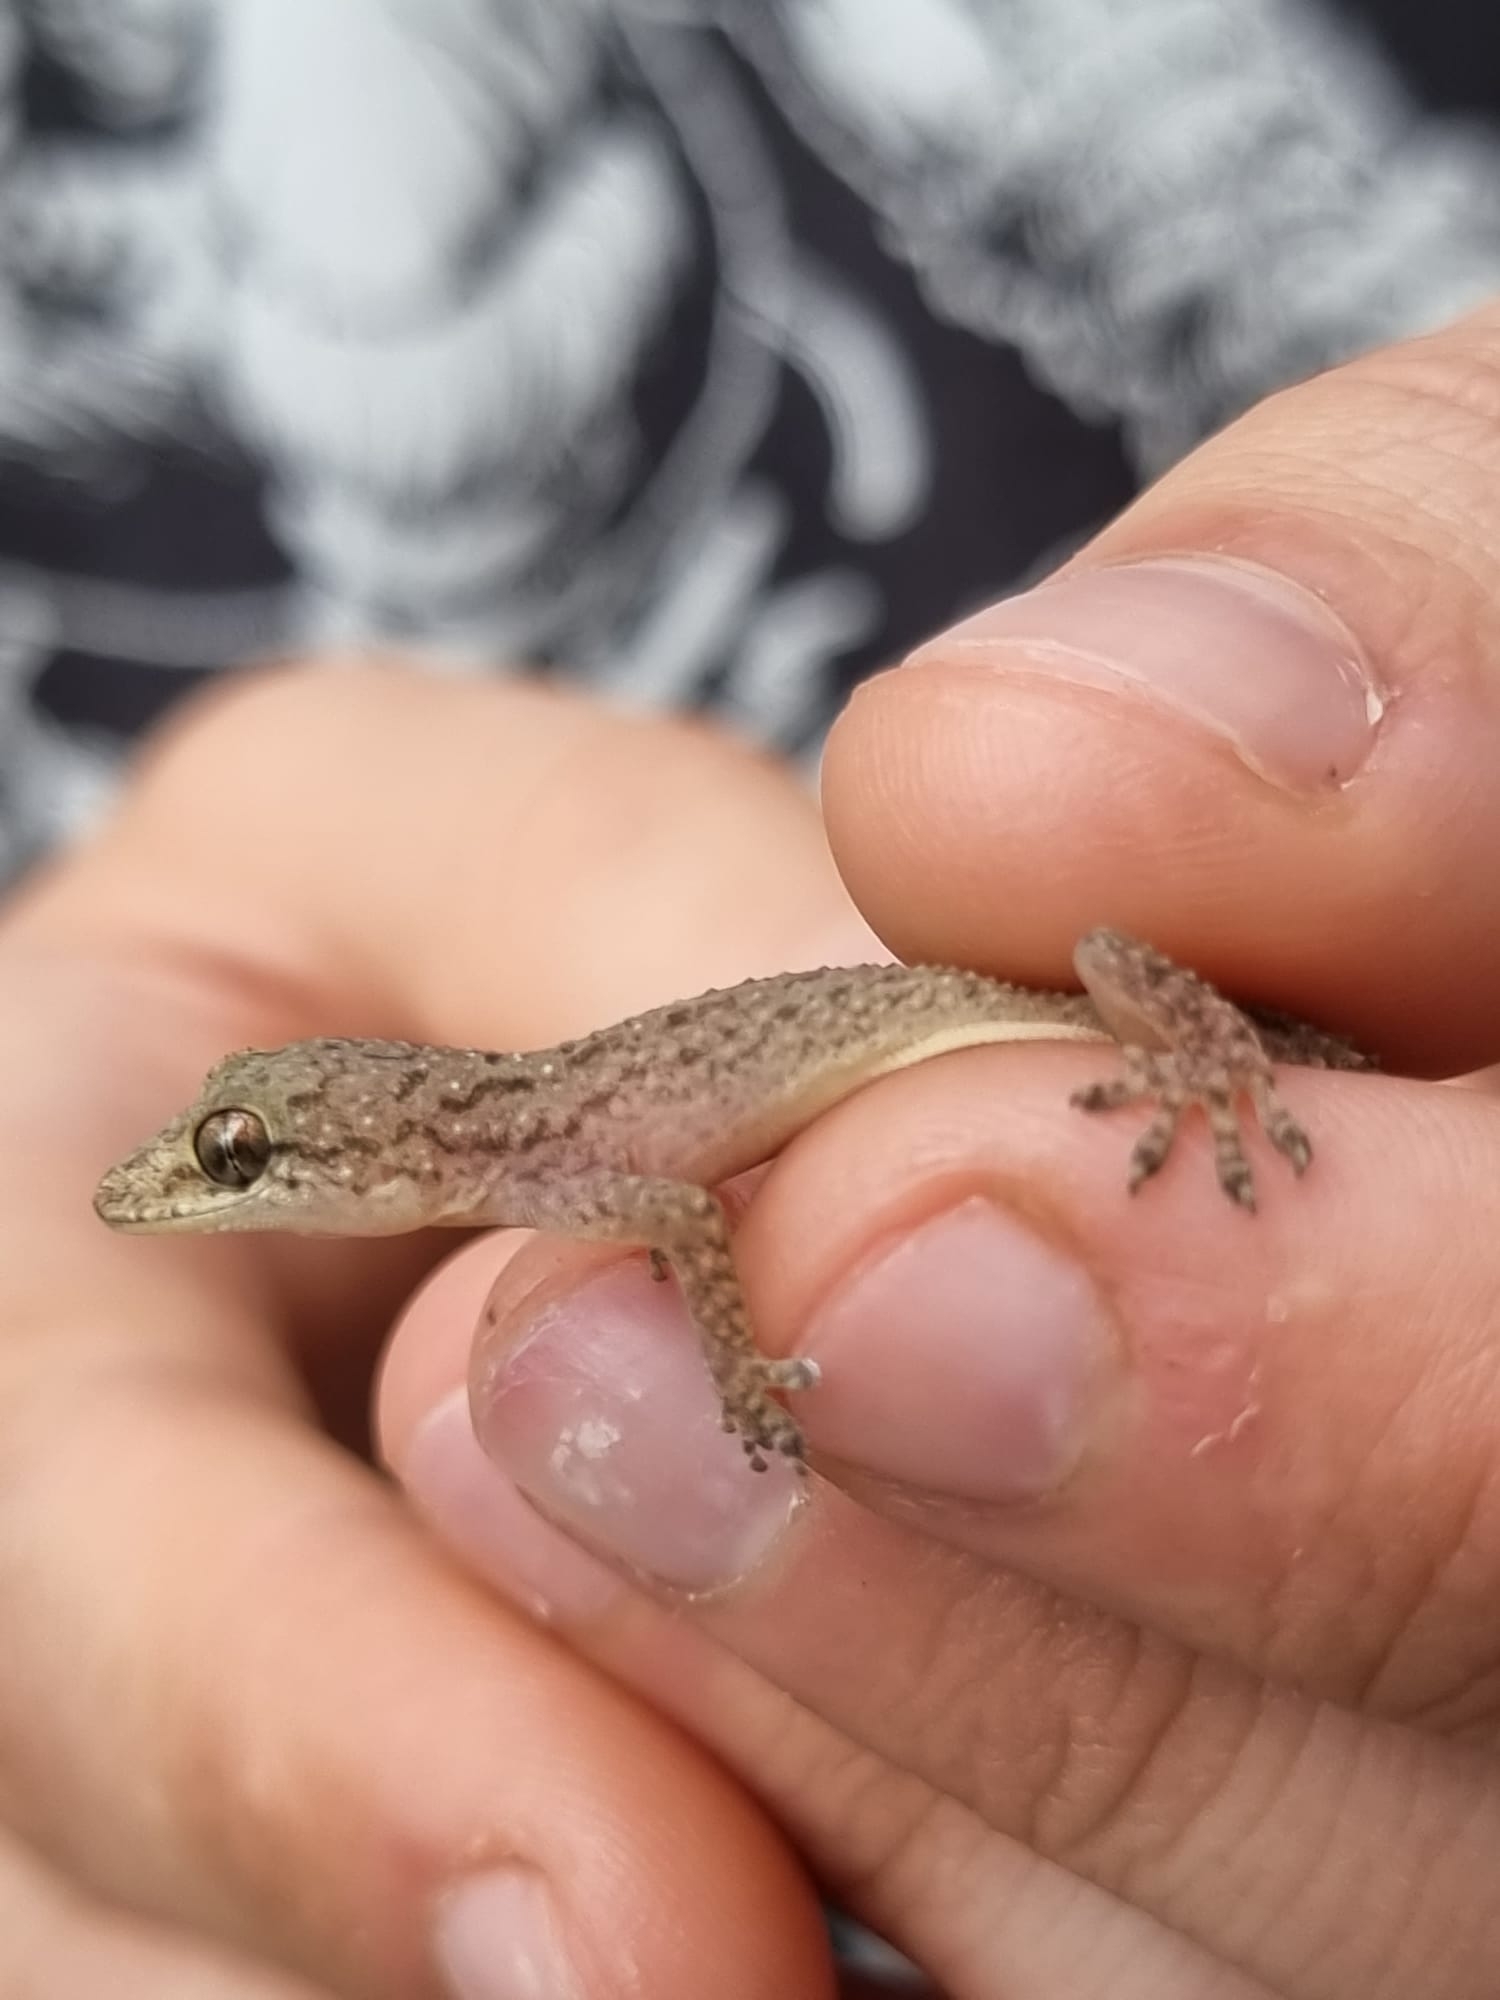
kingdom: Animalia
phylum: Chordata
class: Squamata
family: Gekkonidae
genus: Hemidactylus
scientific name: Hemidactylus parvimaculatus
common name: Spotted house gecko
